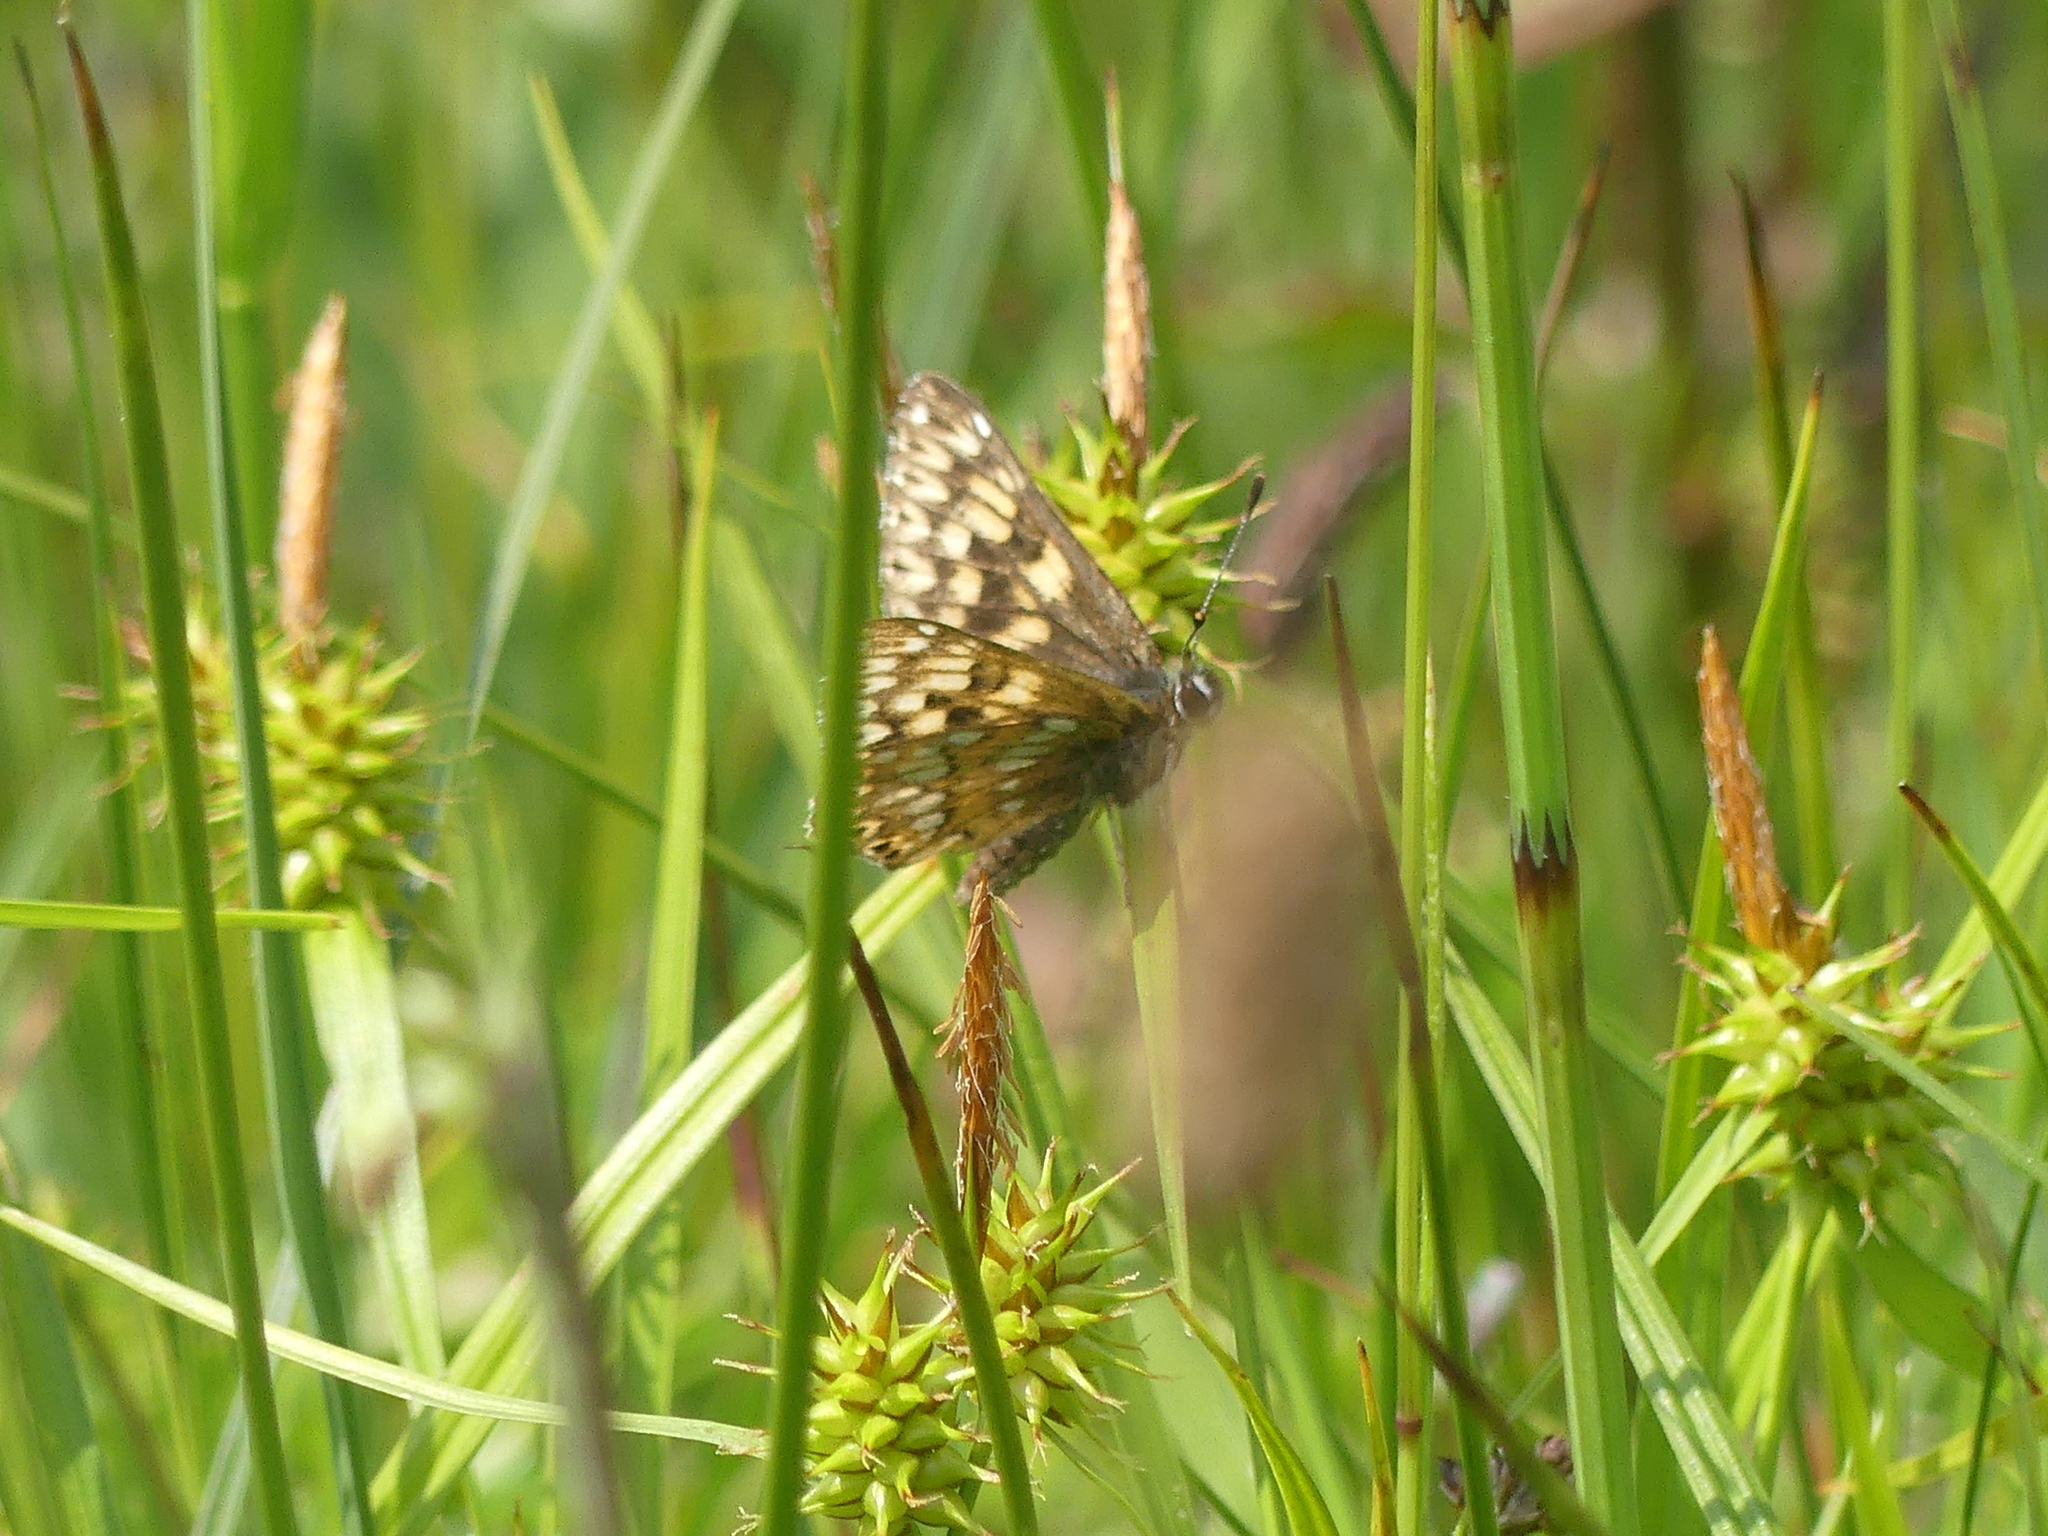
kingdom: Animalia
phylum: Arthropoda
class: Insecta
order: Lepidoptera
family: Riodinidae
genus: Hamearis
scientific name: Hamearis lucina
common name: Duke of burgundy fritillary
